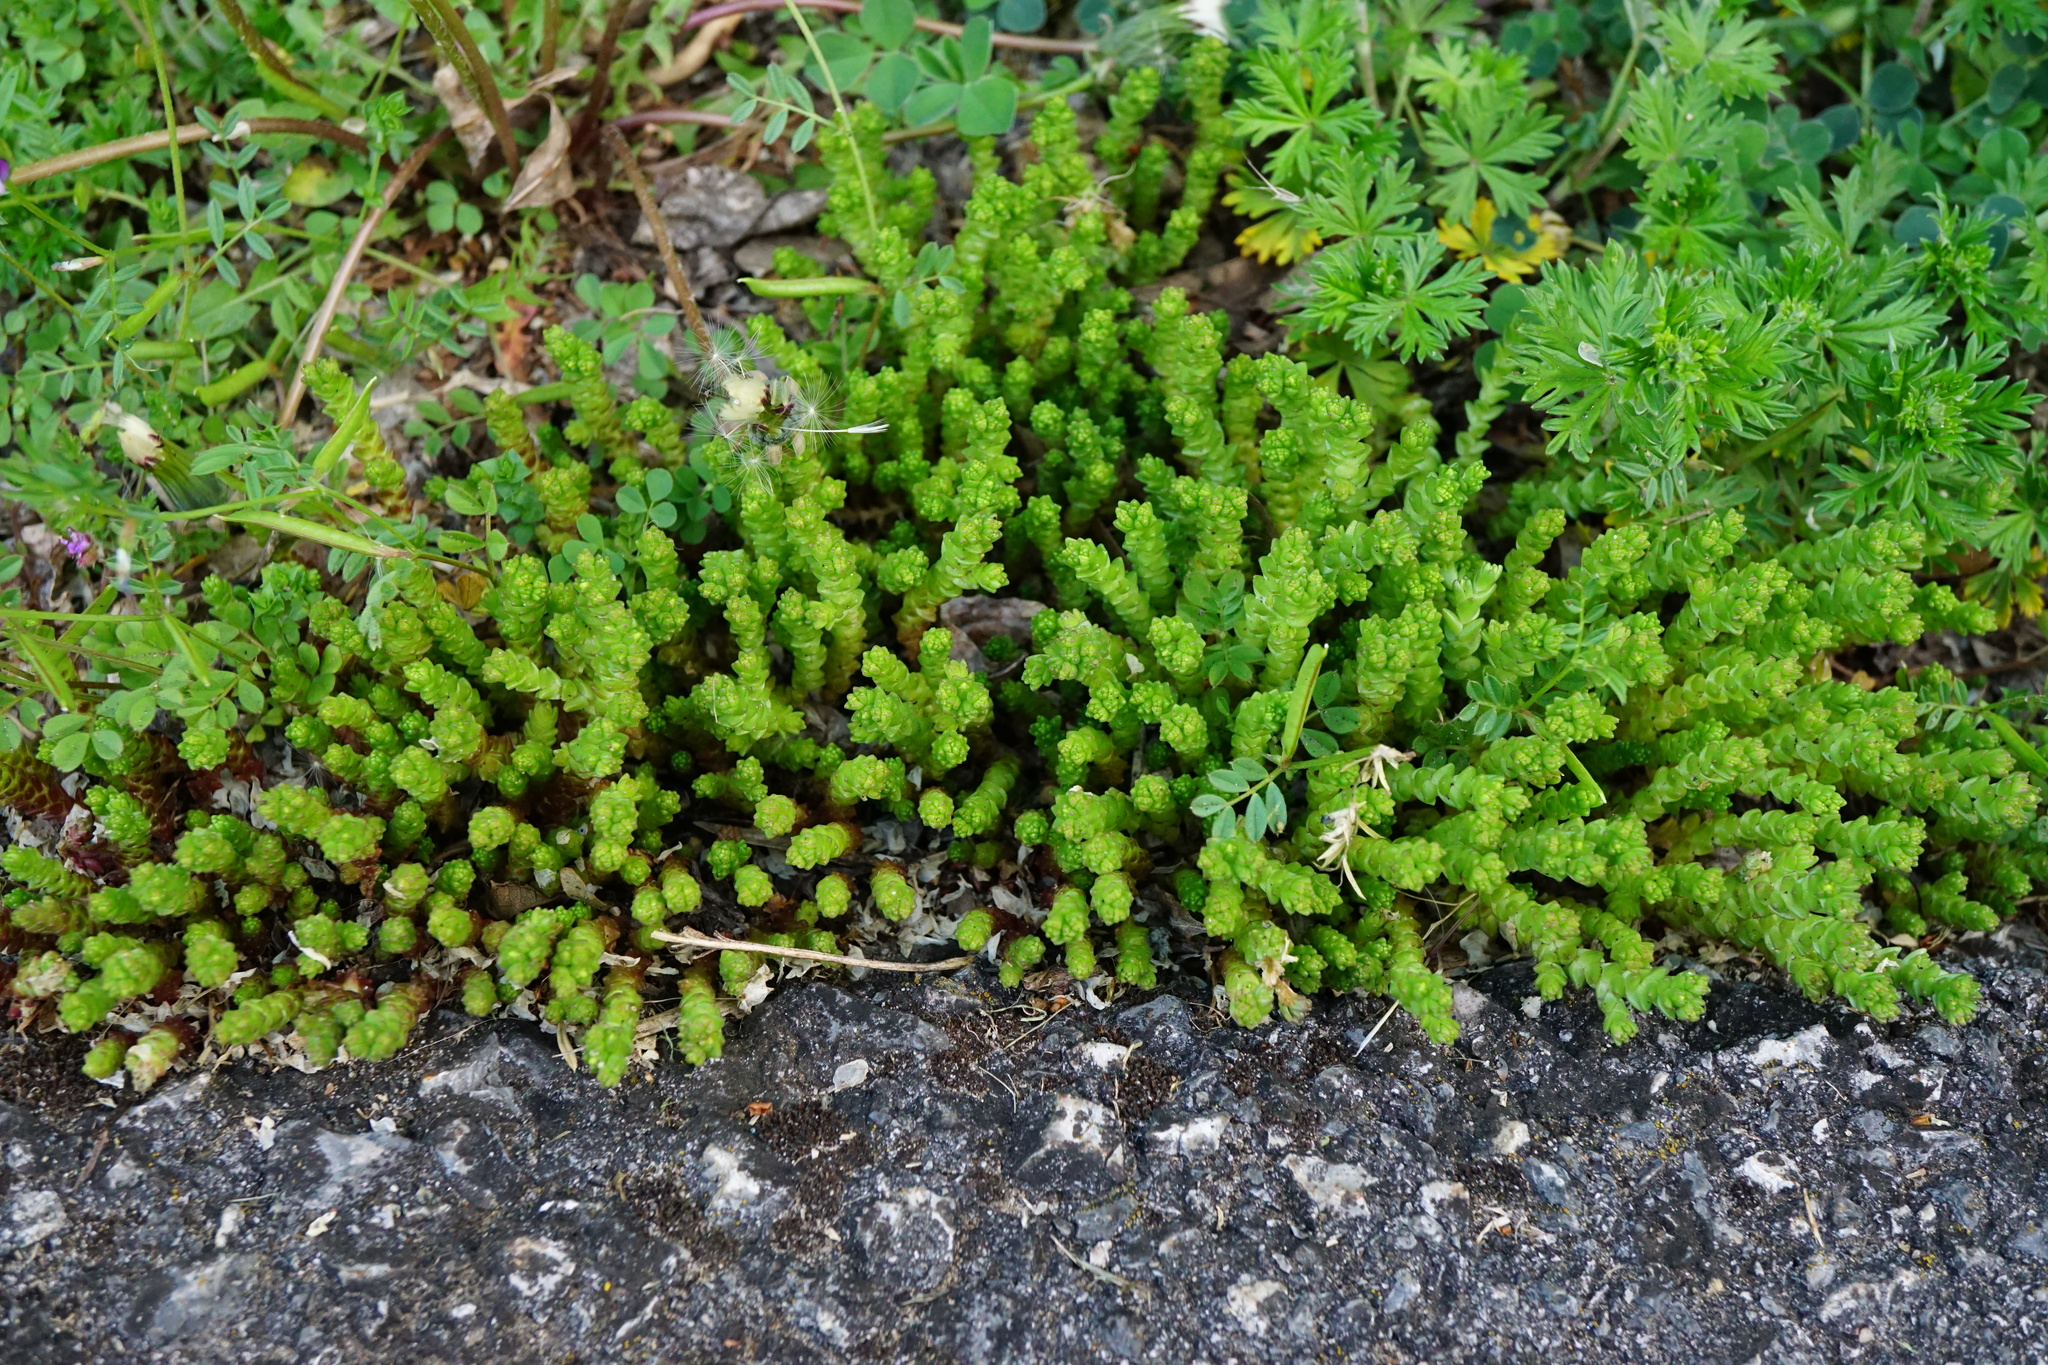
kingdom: Plantae
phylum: Tracheophyta
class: Magnoliopsida
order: Saxifragales
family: Crassulaceae
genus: Sedum
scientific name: Sedum acre
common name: Biting stonecrop
